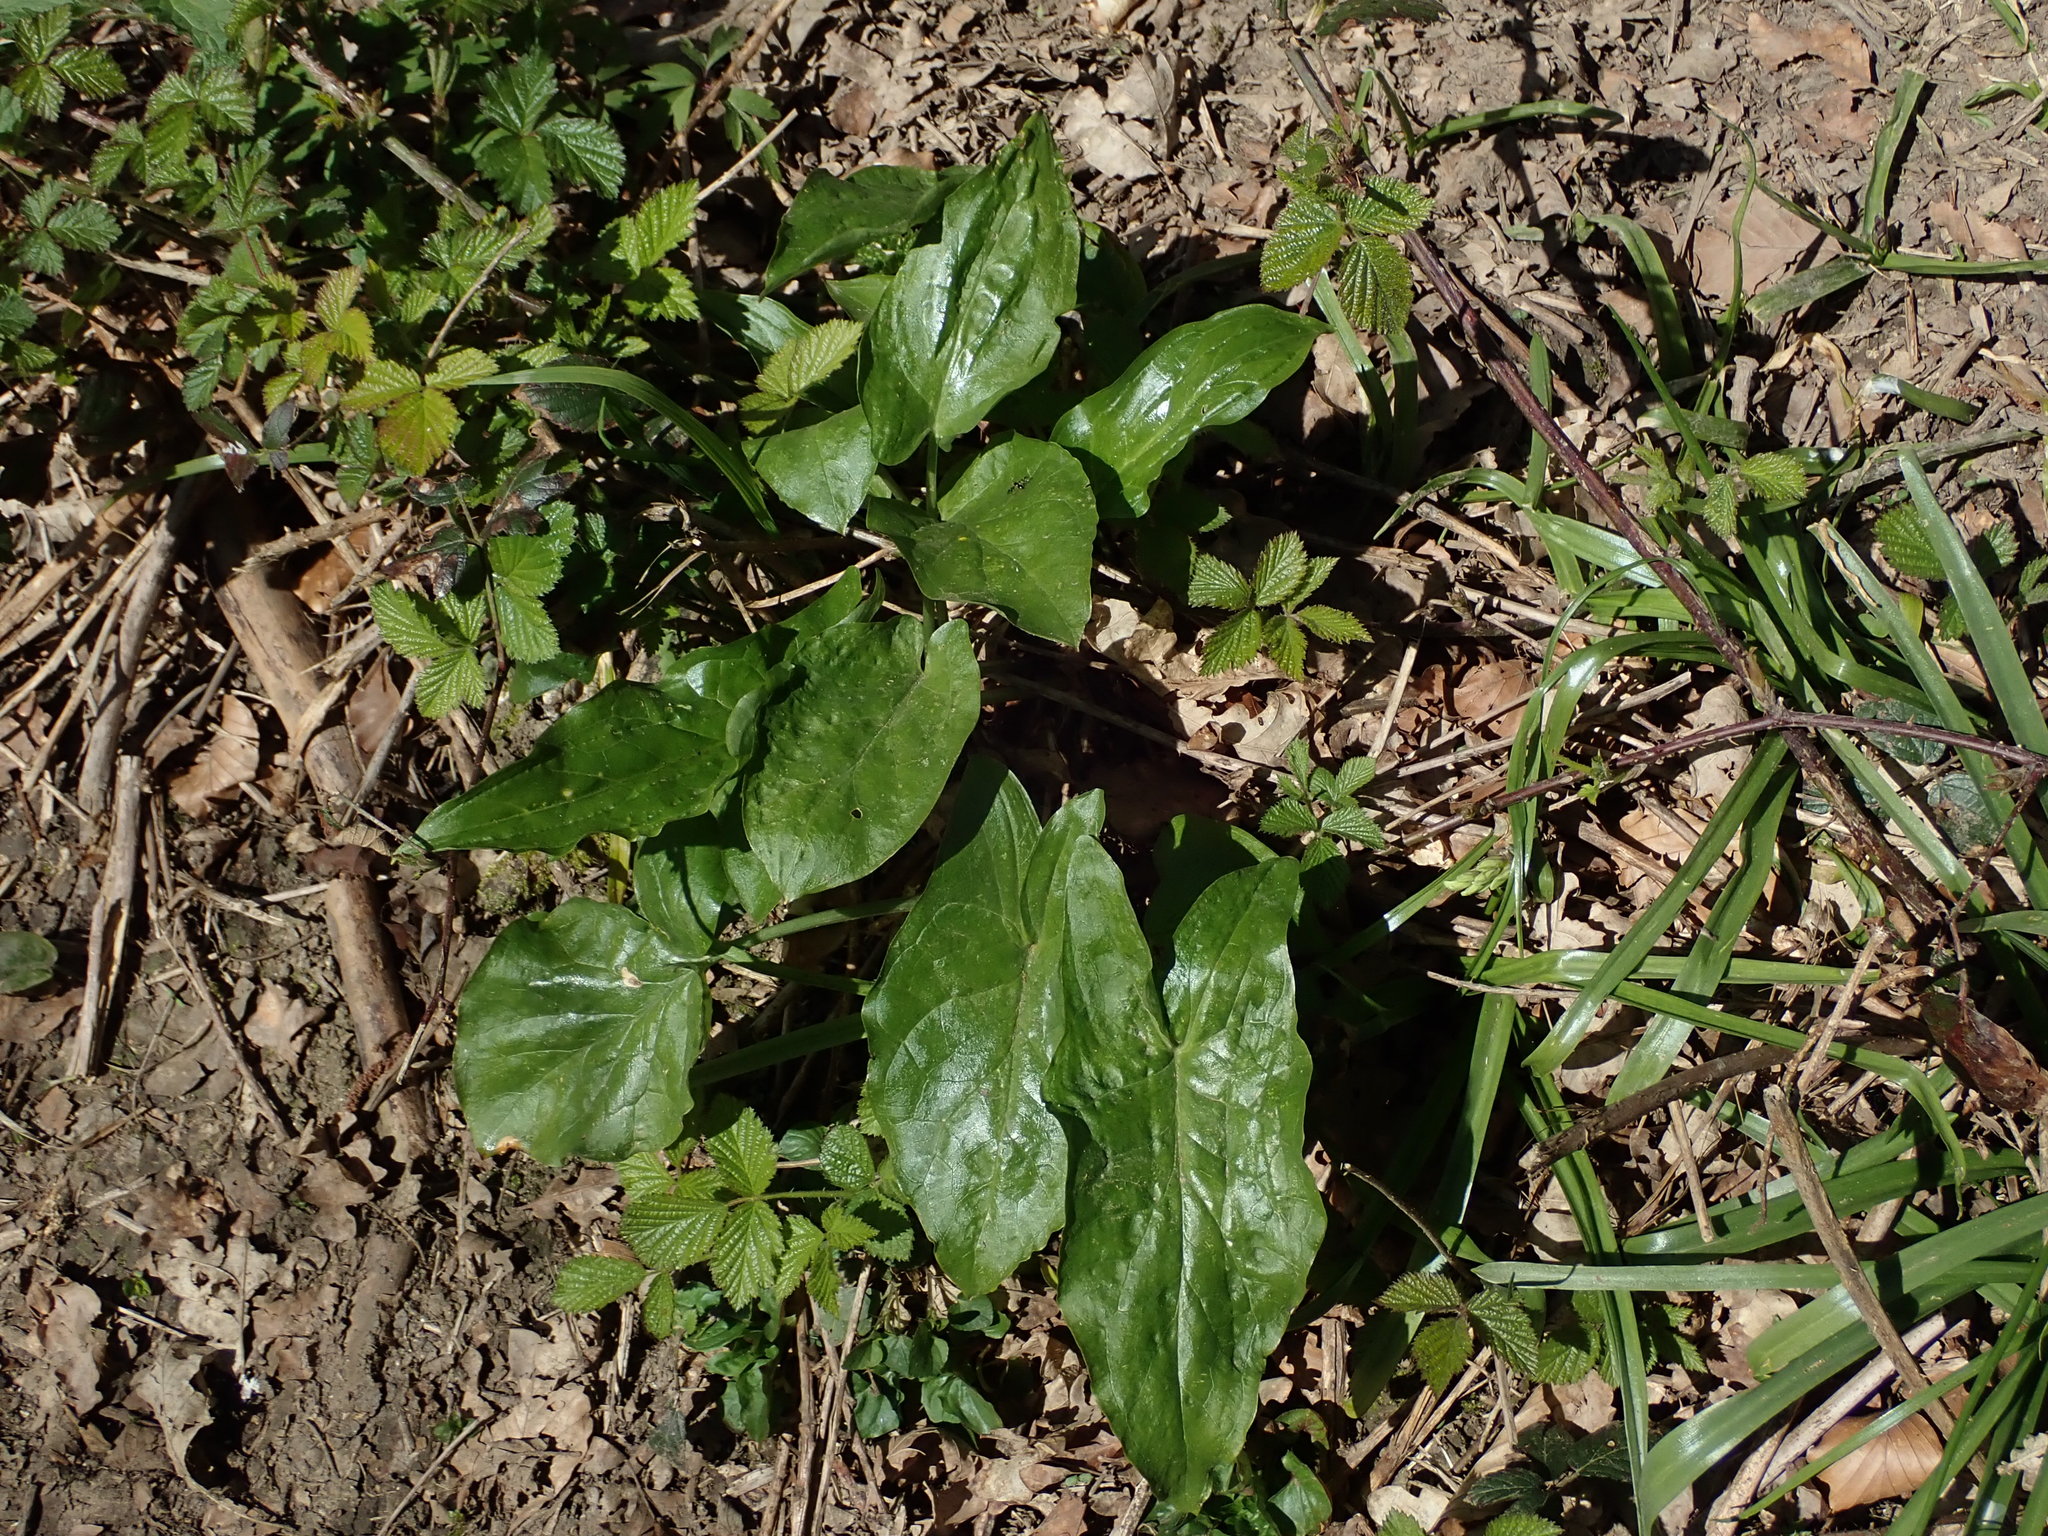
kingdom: Plantae
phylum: Tracheophyta
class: Liliopsida
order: Alismatales
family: Araceae
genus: Arum
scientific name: Arum maculatum
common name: Lords-and-ladies
